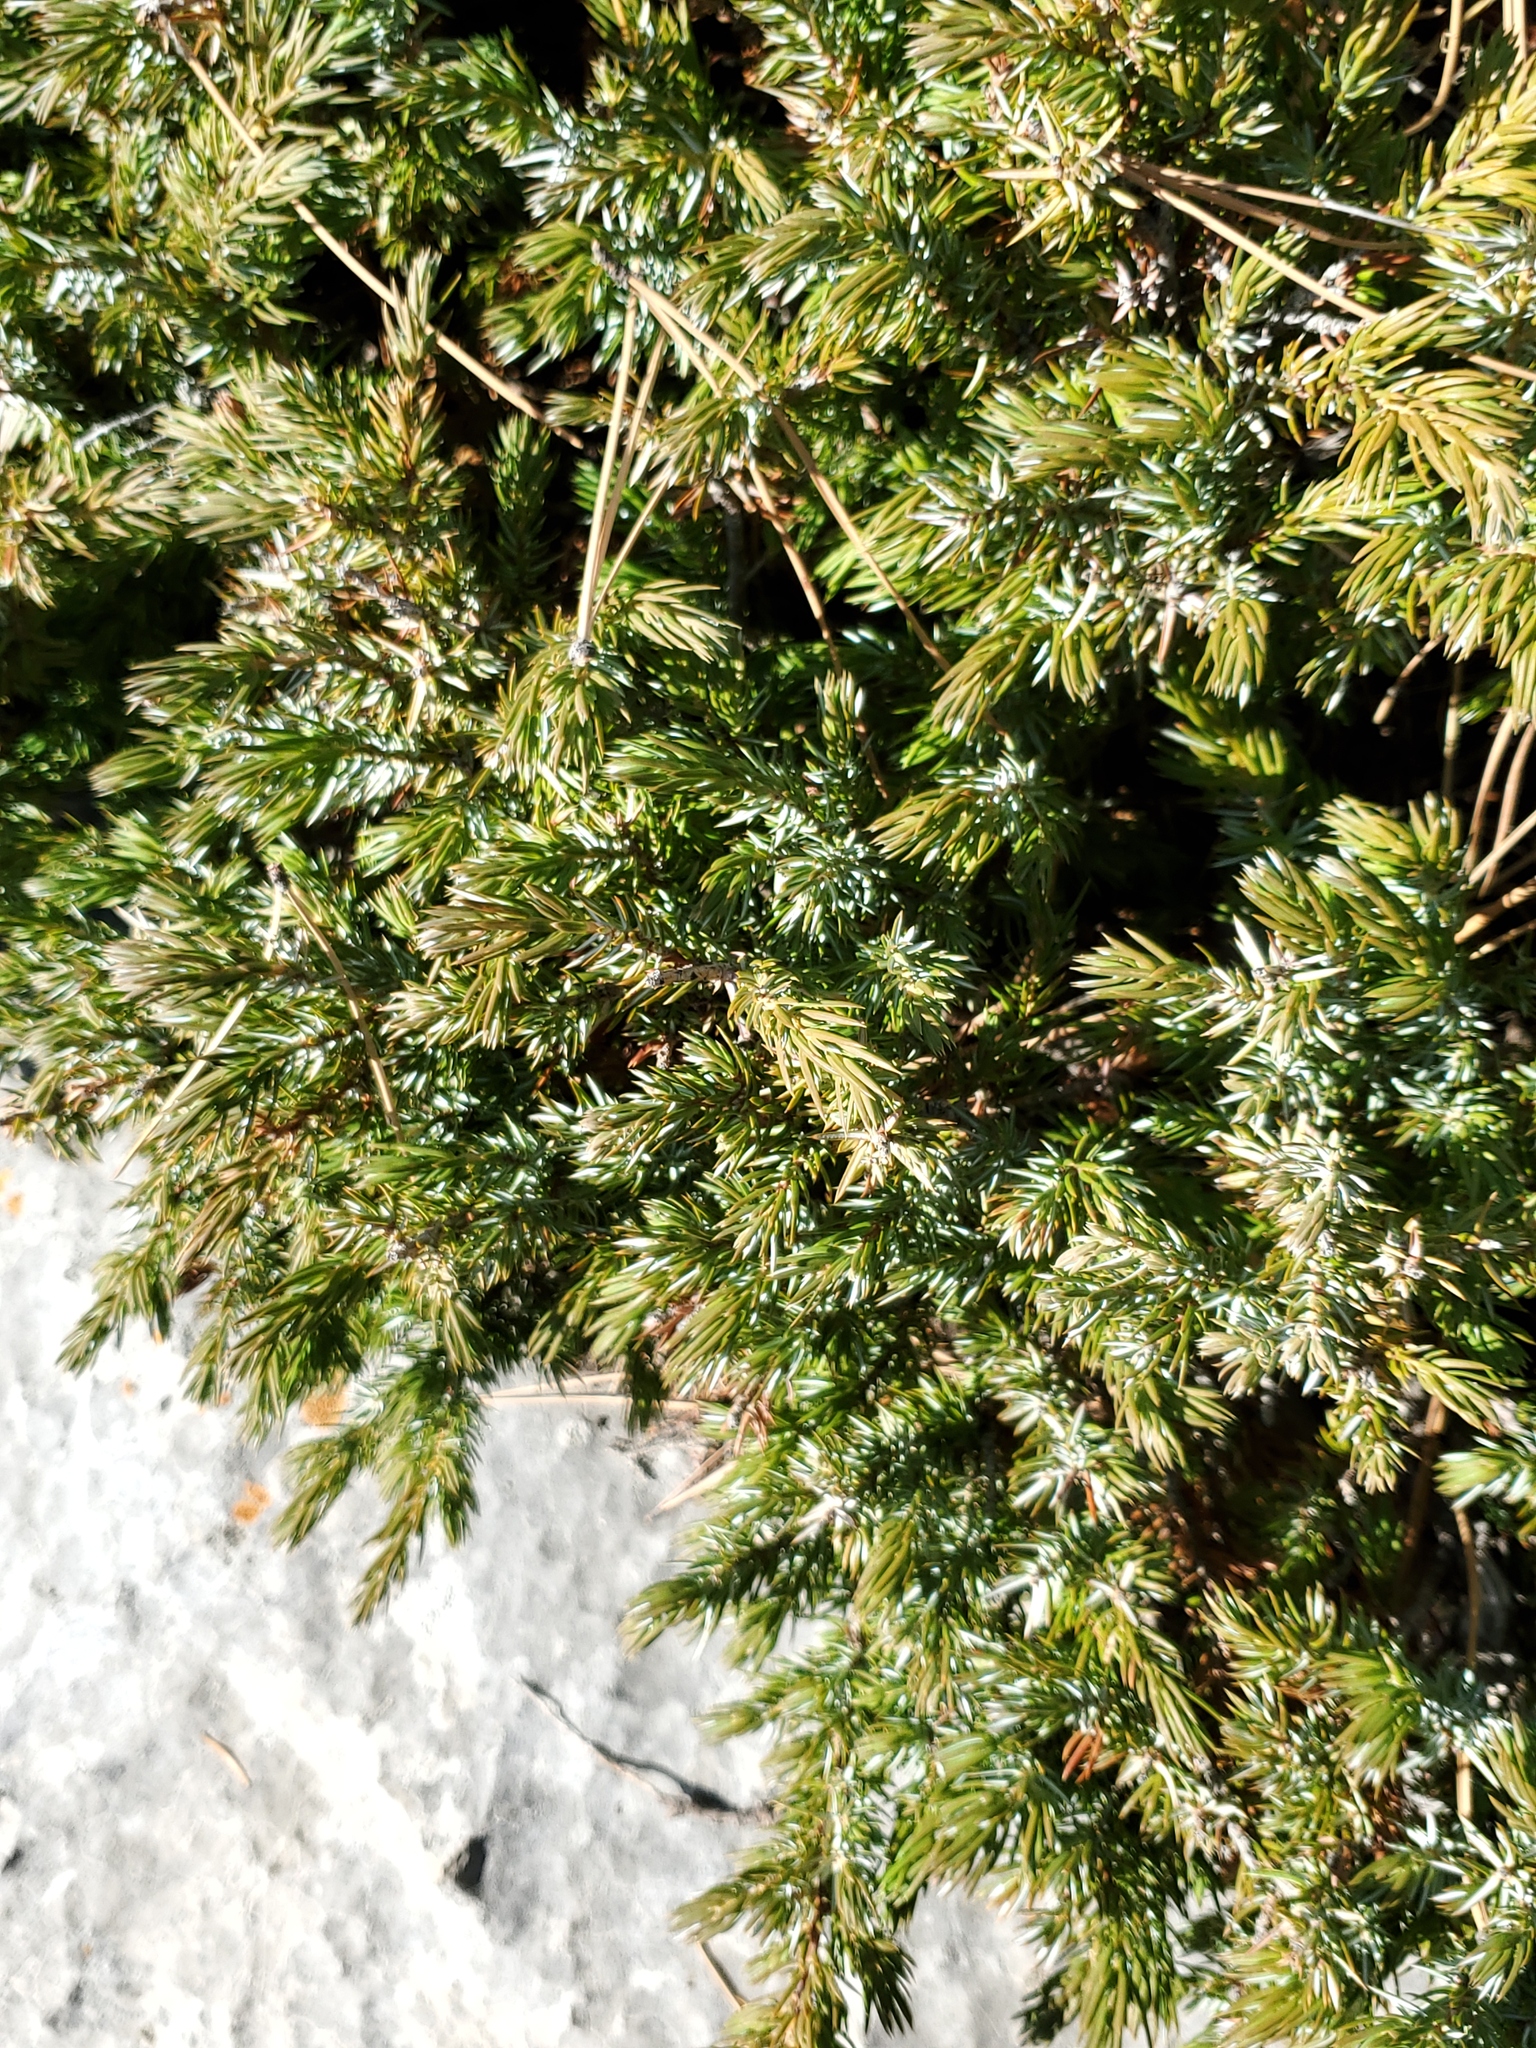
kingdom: Plantae
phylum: Tracheophyta
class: Pinopsida
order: Pinales
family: Cupressaceae
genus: Juniperus
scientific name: Juniperus communis
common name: Common juniper
